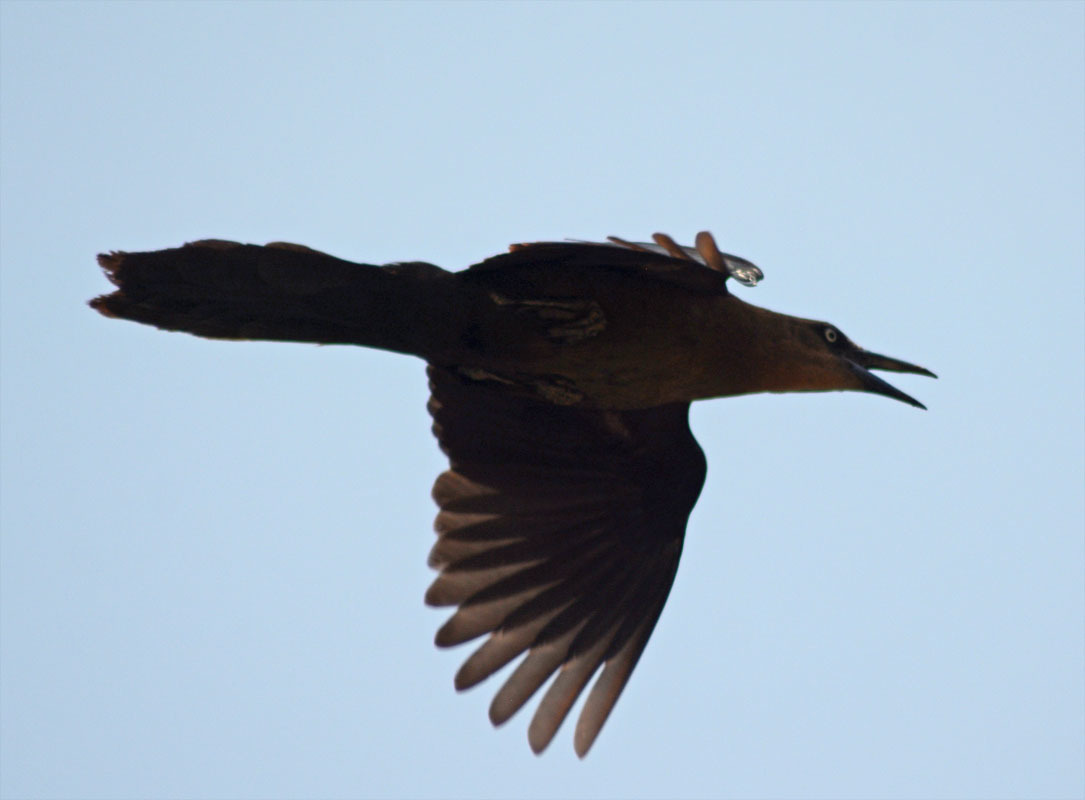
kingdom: Animalia
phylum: Chordata
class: Aves
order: Passeriformes
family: Icteridae
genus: Quiscalus
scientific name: Quiscalus mexicanus
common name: Great-tailed grackle
